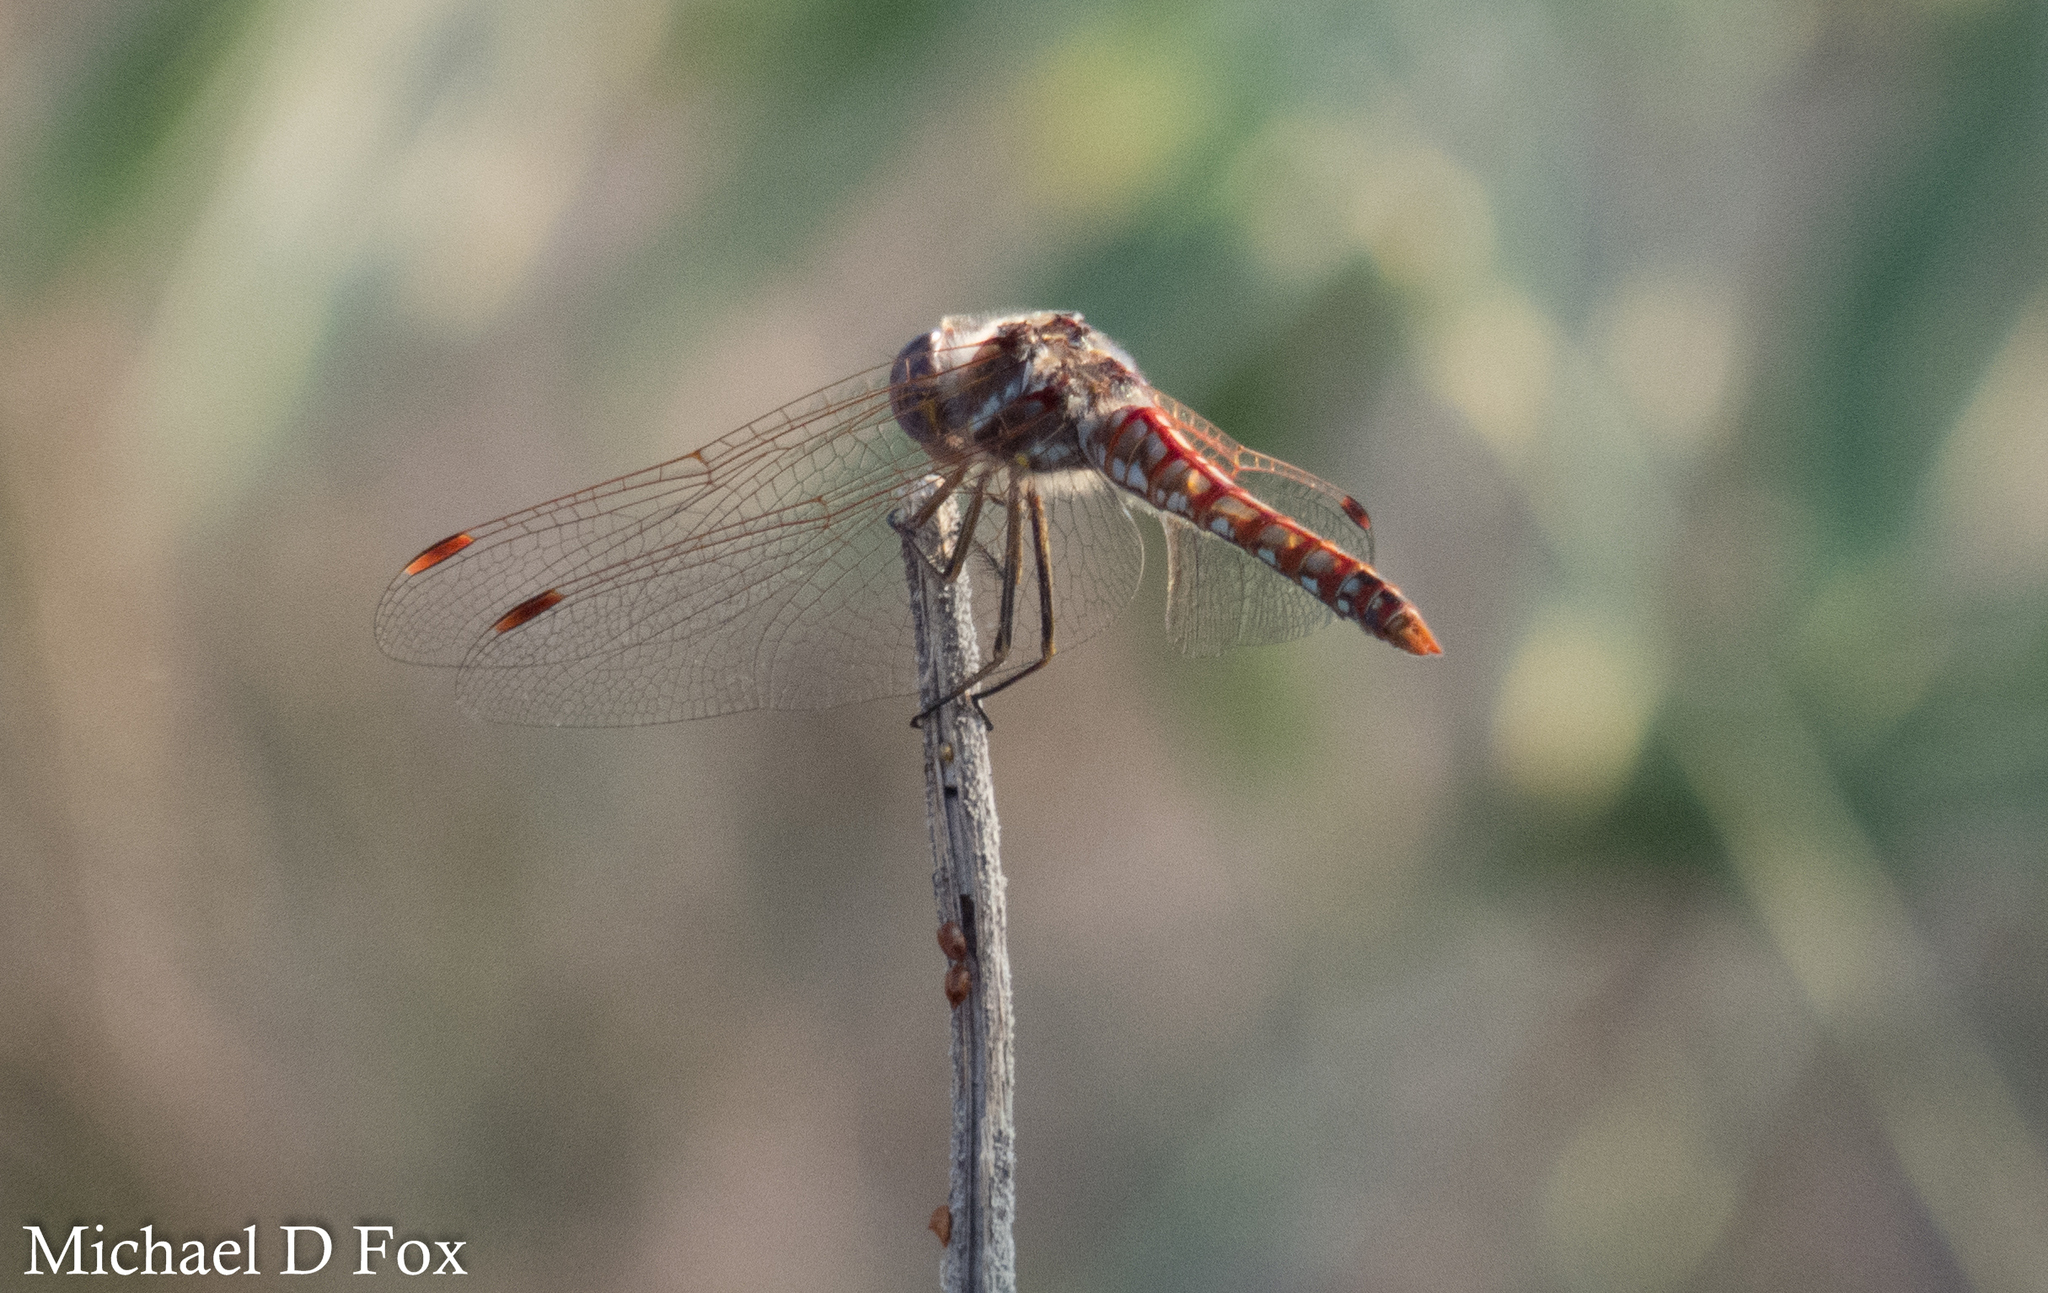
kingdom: Animalia
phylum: Arthropoda
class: Insecta
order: Odonata
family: Libellulidae
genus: Sympetrum
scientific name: Sympetrum corruptum
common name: Variegated meadowhawk
